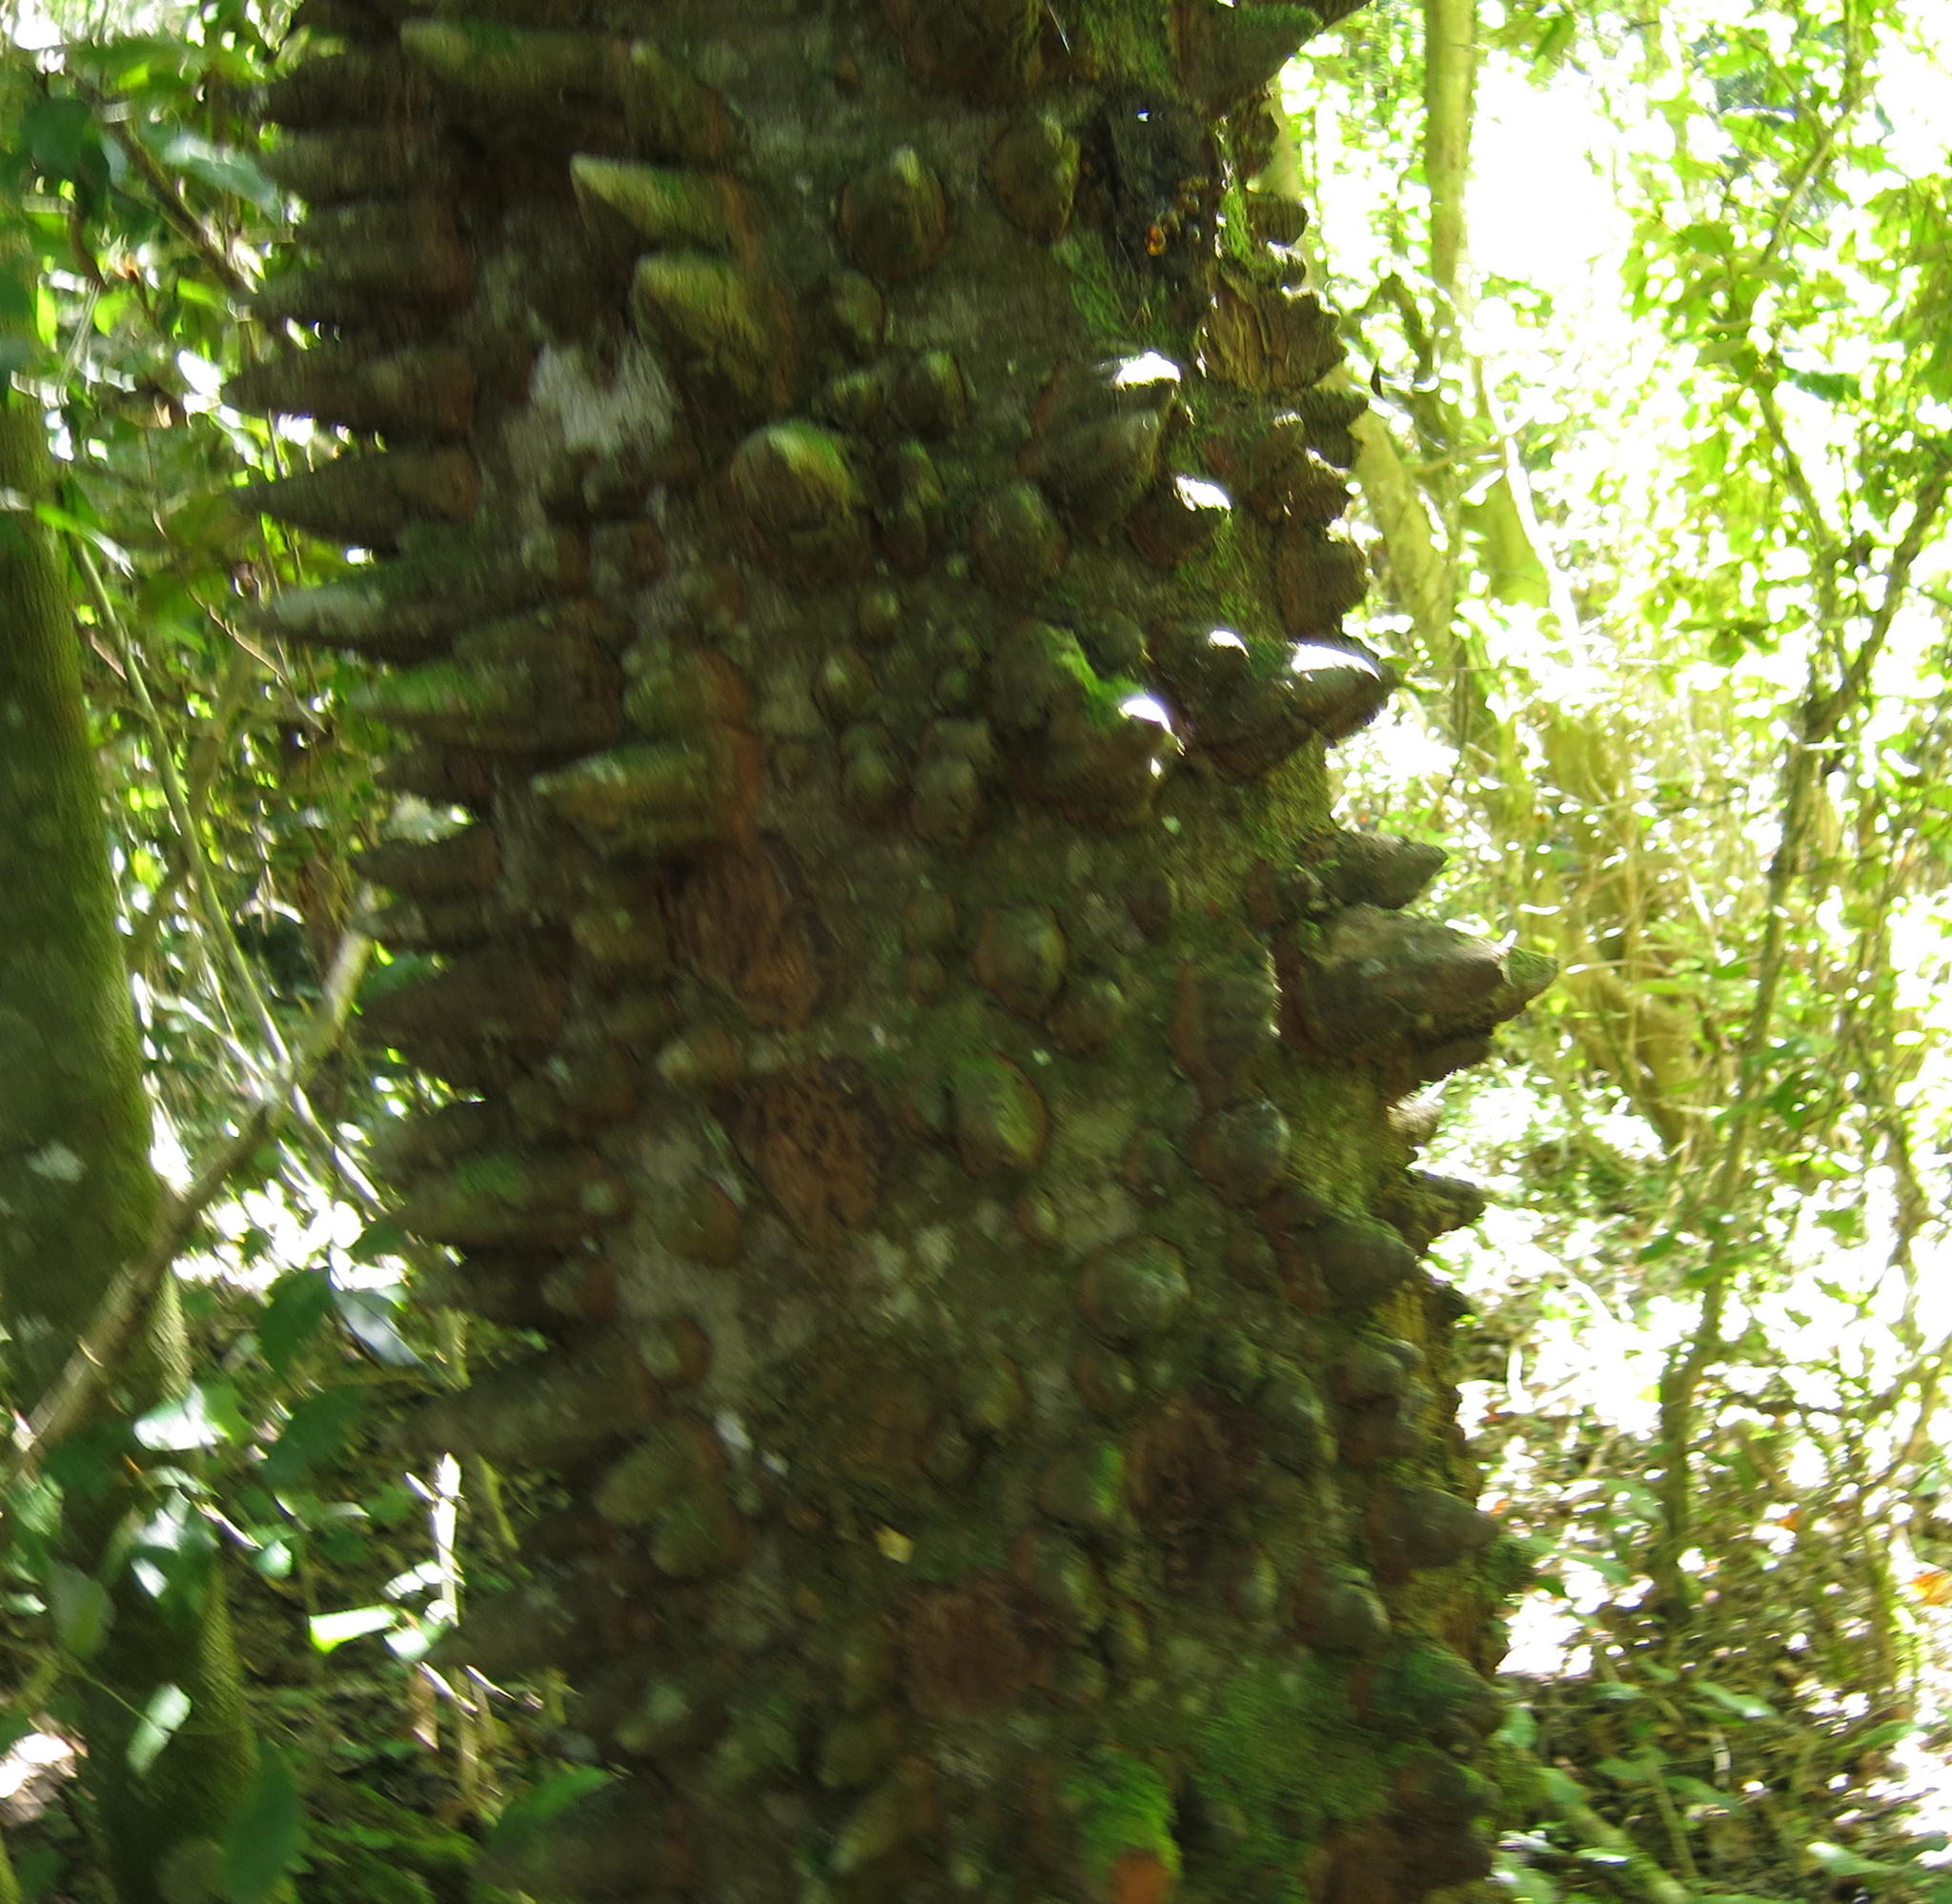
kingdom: Plantae
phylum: Tracheophyta
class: Magnoliopsida
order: Sapindales
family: Rutaceae
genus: Zanthoxylum
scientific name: Zanthoxylum davyi
